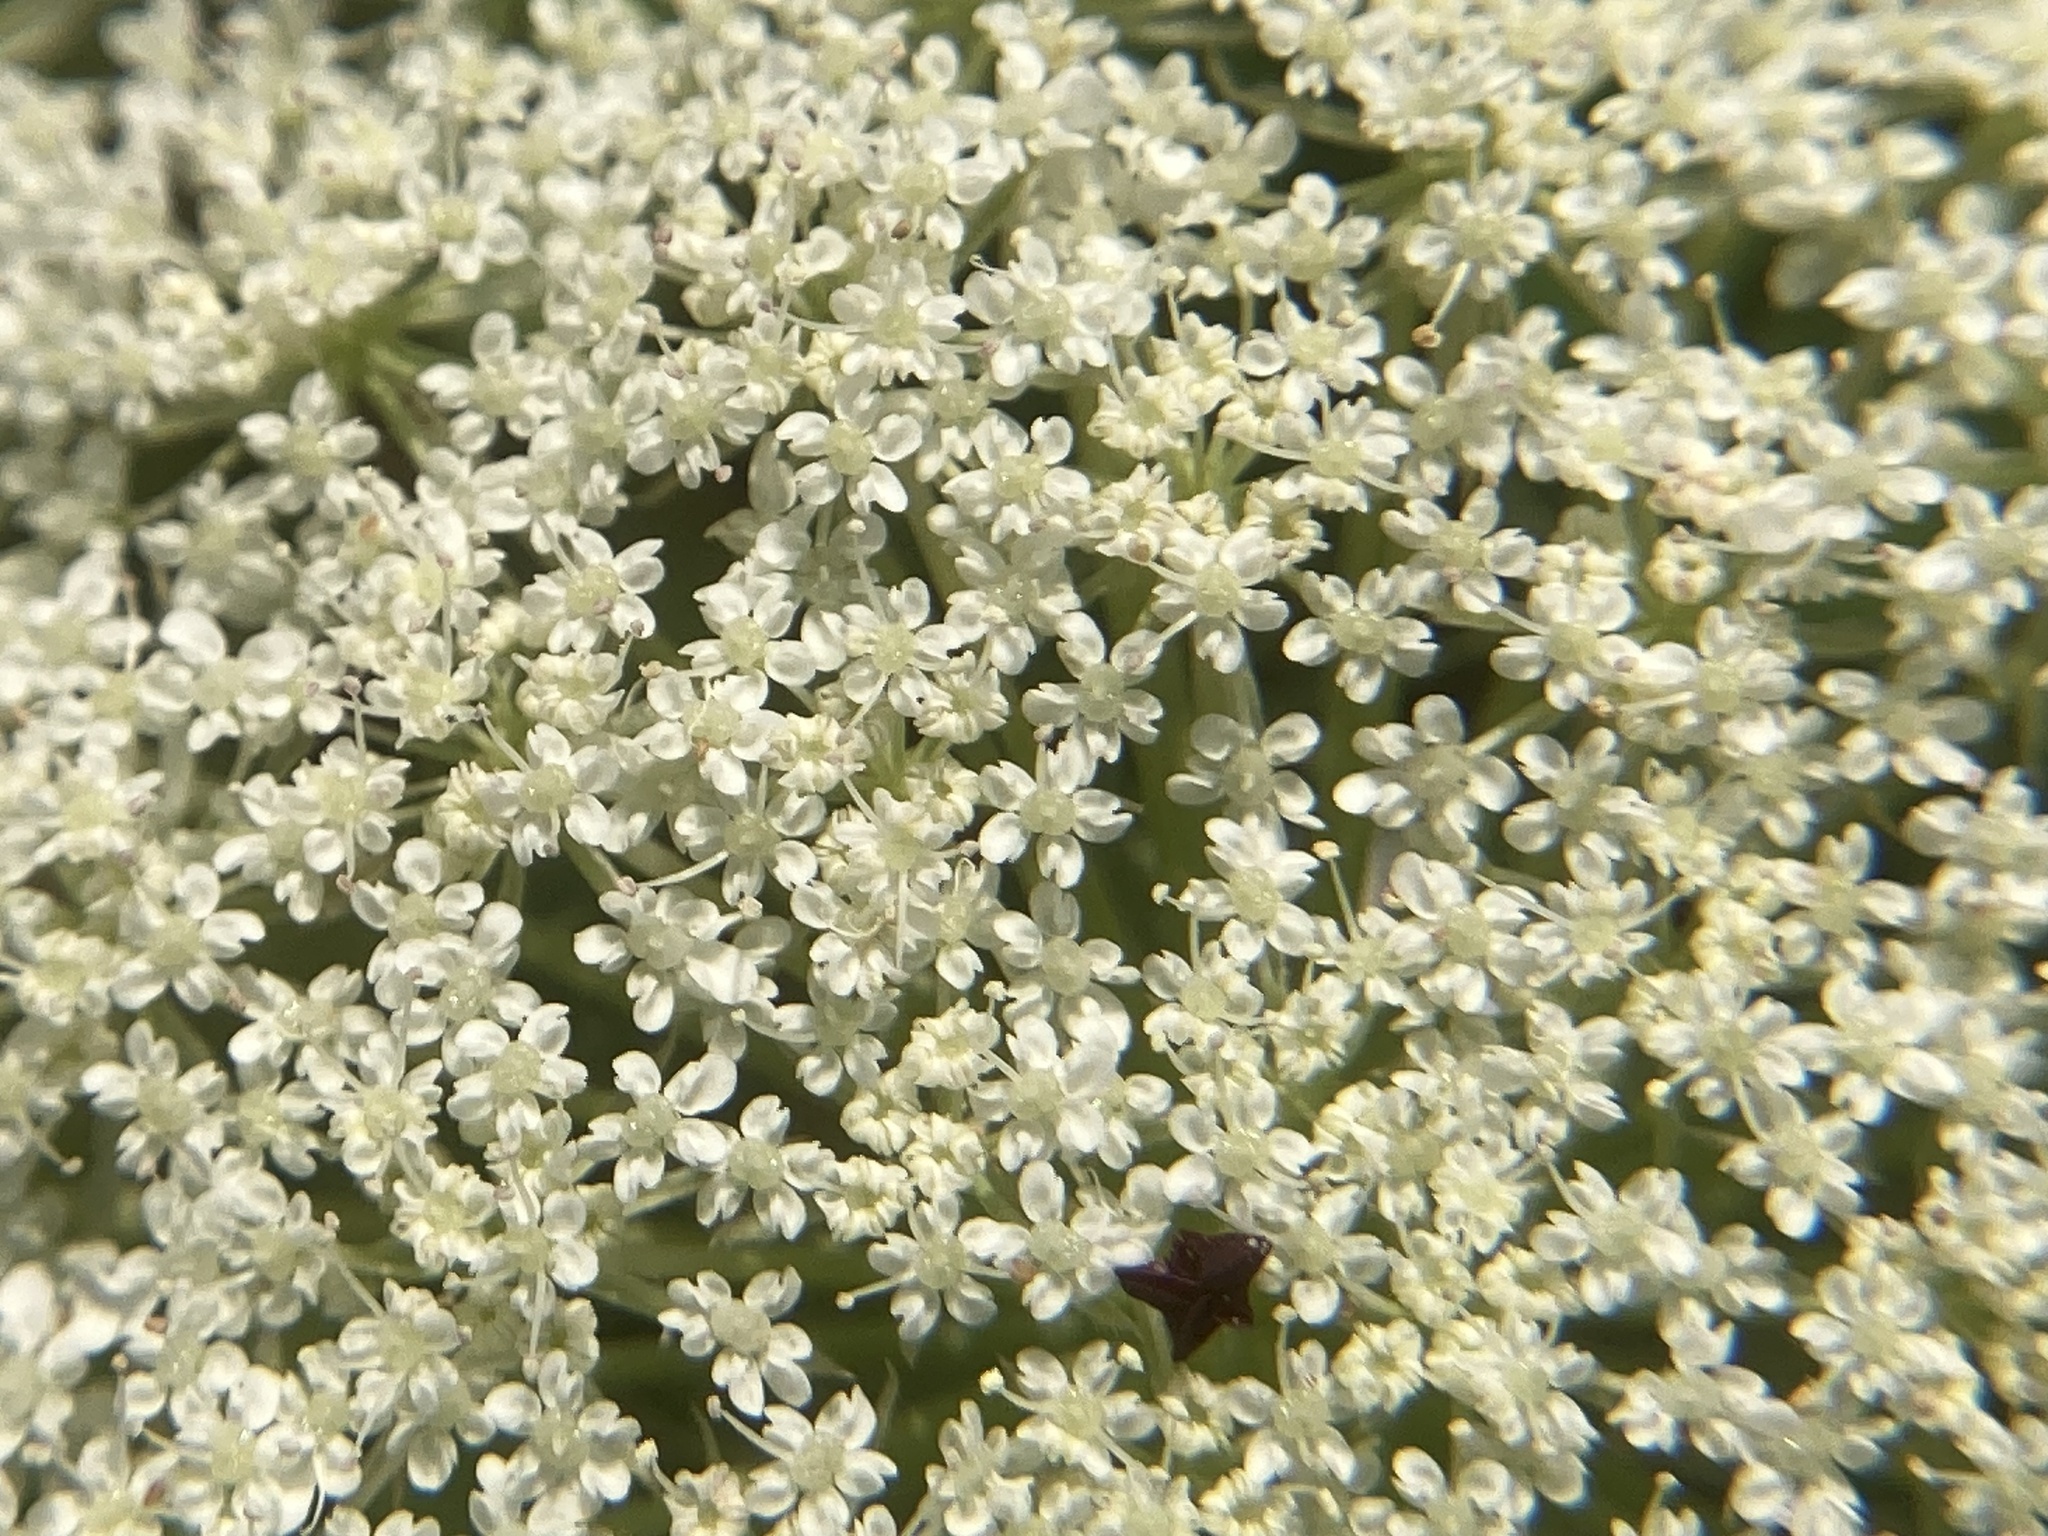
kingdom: Plantae
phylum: Tracheophyta
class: Magnoliopsida
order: Apiales
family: Apiaceae
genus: Daucus
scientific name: Daucus carota
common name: Wild carrot
